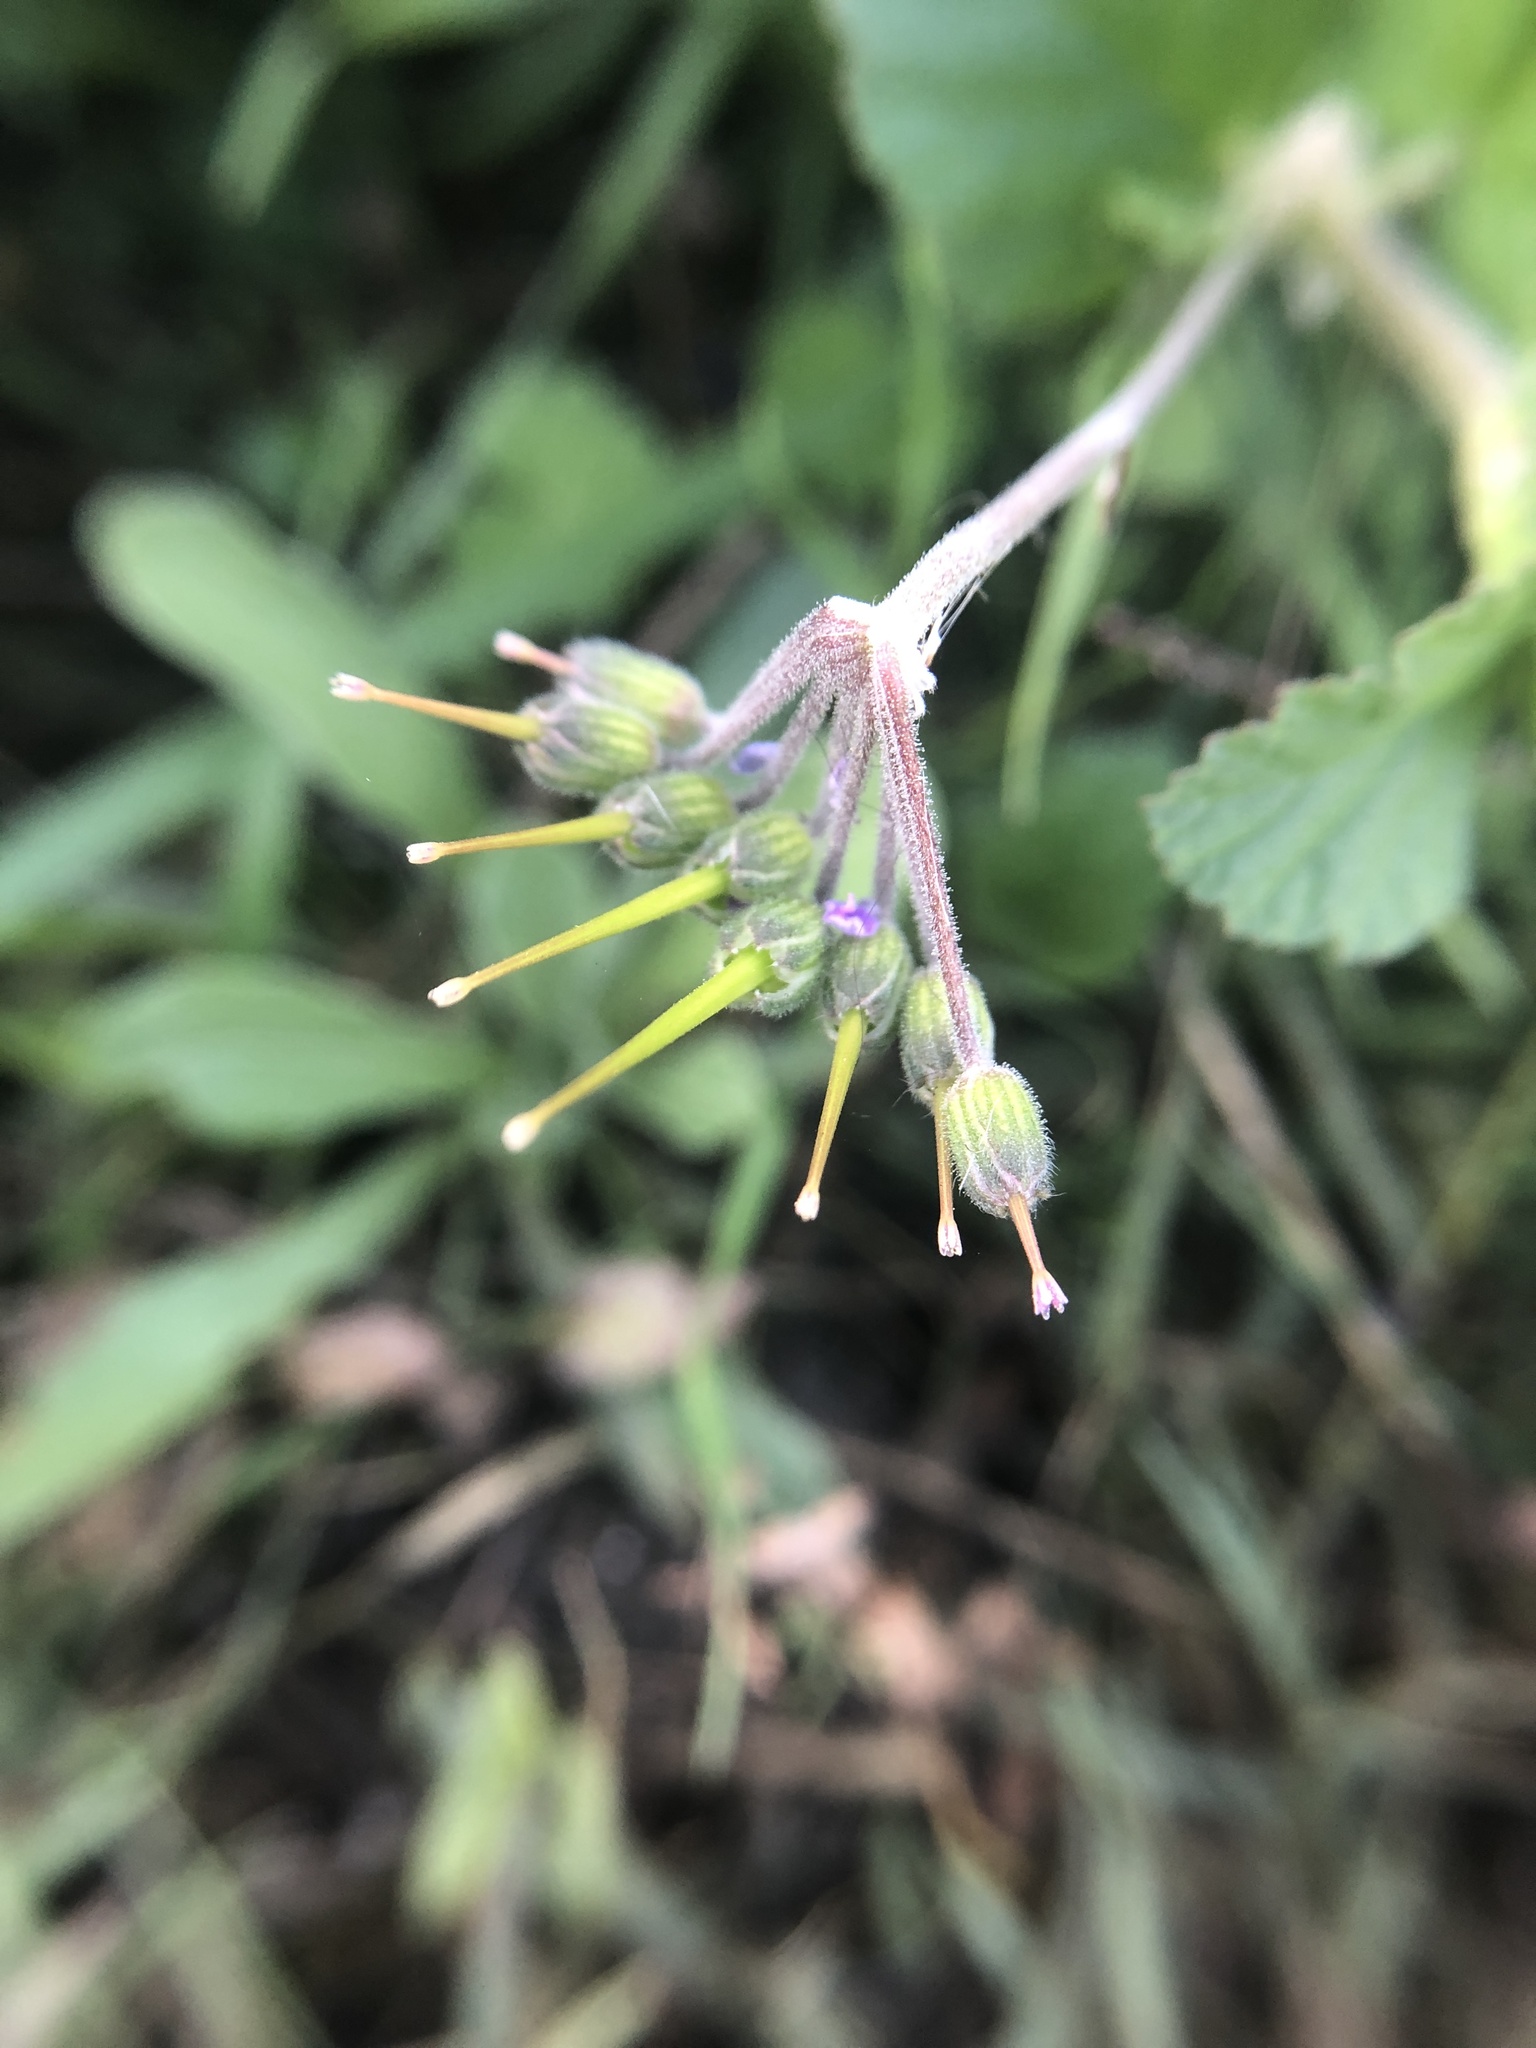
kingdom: Plantae
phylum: Tracheophyta
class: Magnoliopsida
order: Geraniales
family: Geraniaceae
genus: Erodium
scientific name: Erodium malacoides
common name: Soft stork's-bill
